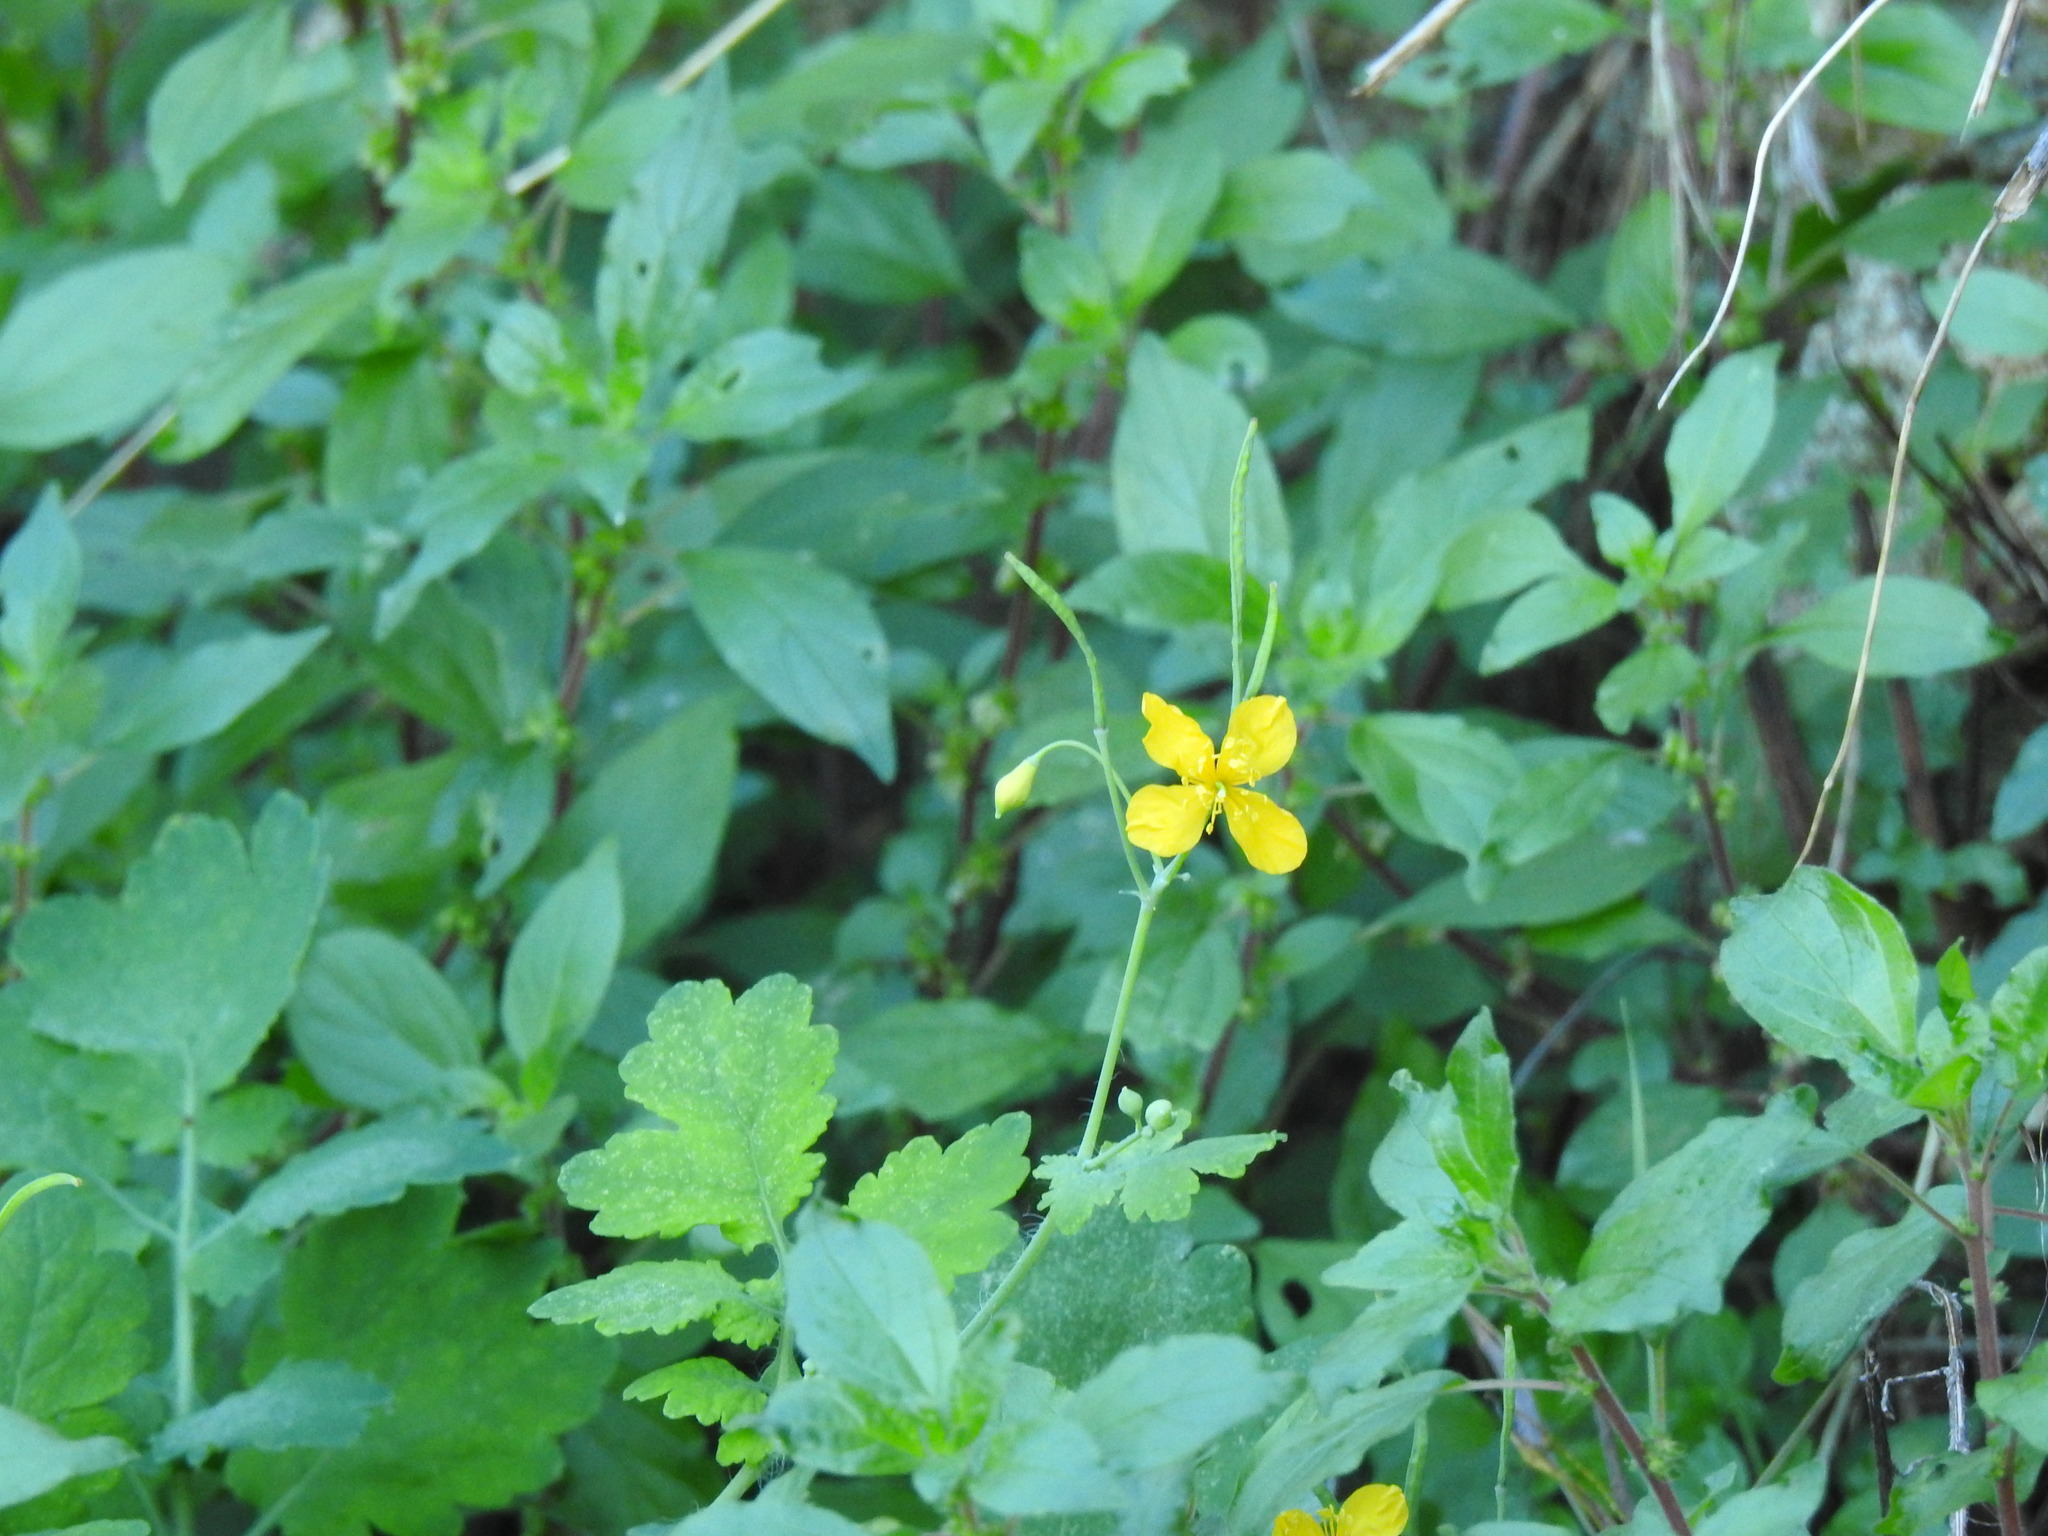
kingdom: Plantae
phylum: Tracheophyta
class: Magnoliopsida
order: Ranunculales
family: Papaveraceae
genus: Chelidonium
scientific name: Chelidonium majus
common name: Greater celandine
